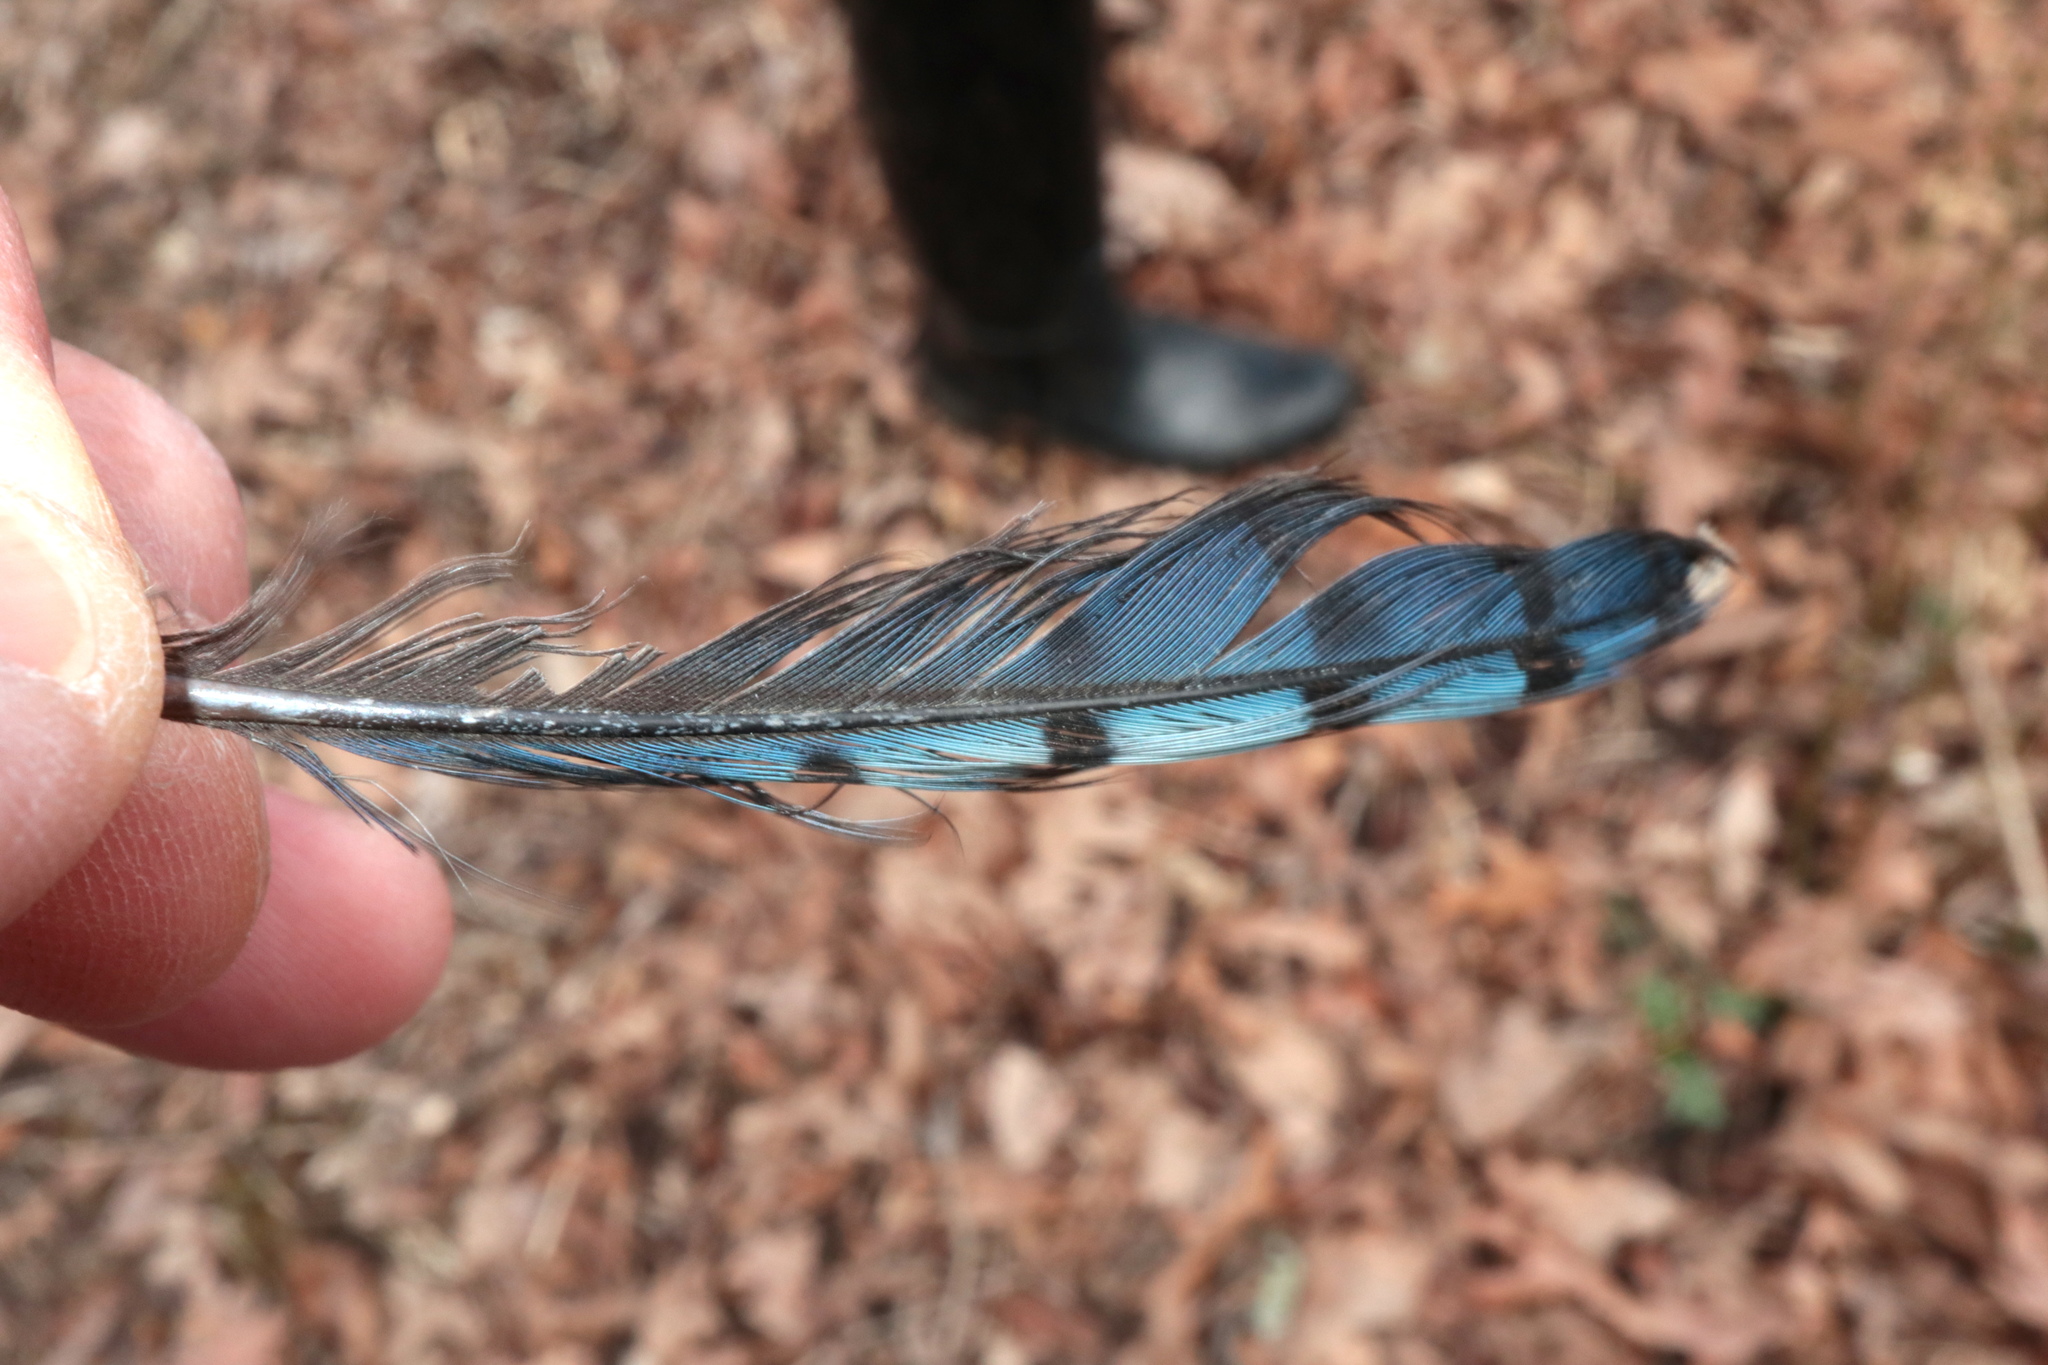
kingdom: Animalia
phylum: Chordata
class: Aves
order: Passeriformes
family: Corvidae
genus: Cyanocitta
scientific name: Cyanocitta cristata
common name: Blue jay
